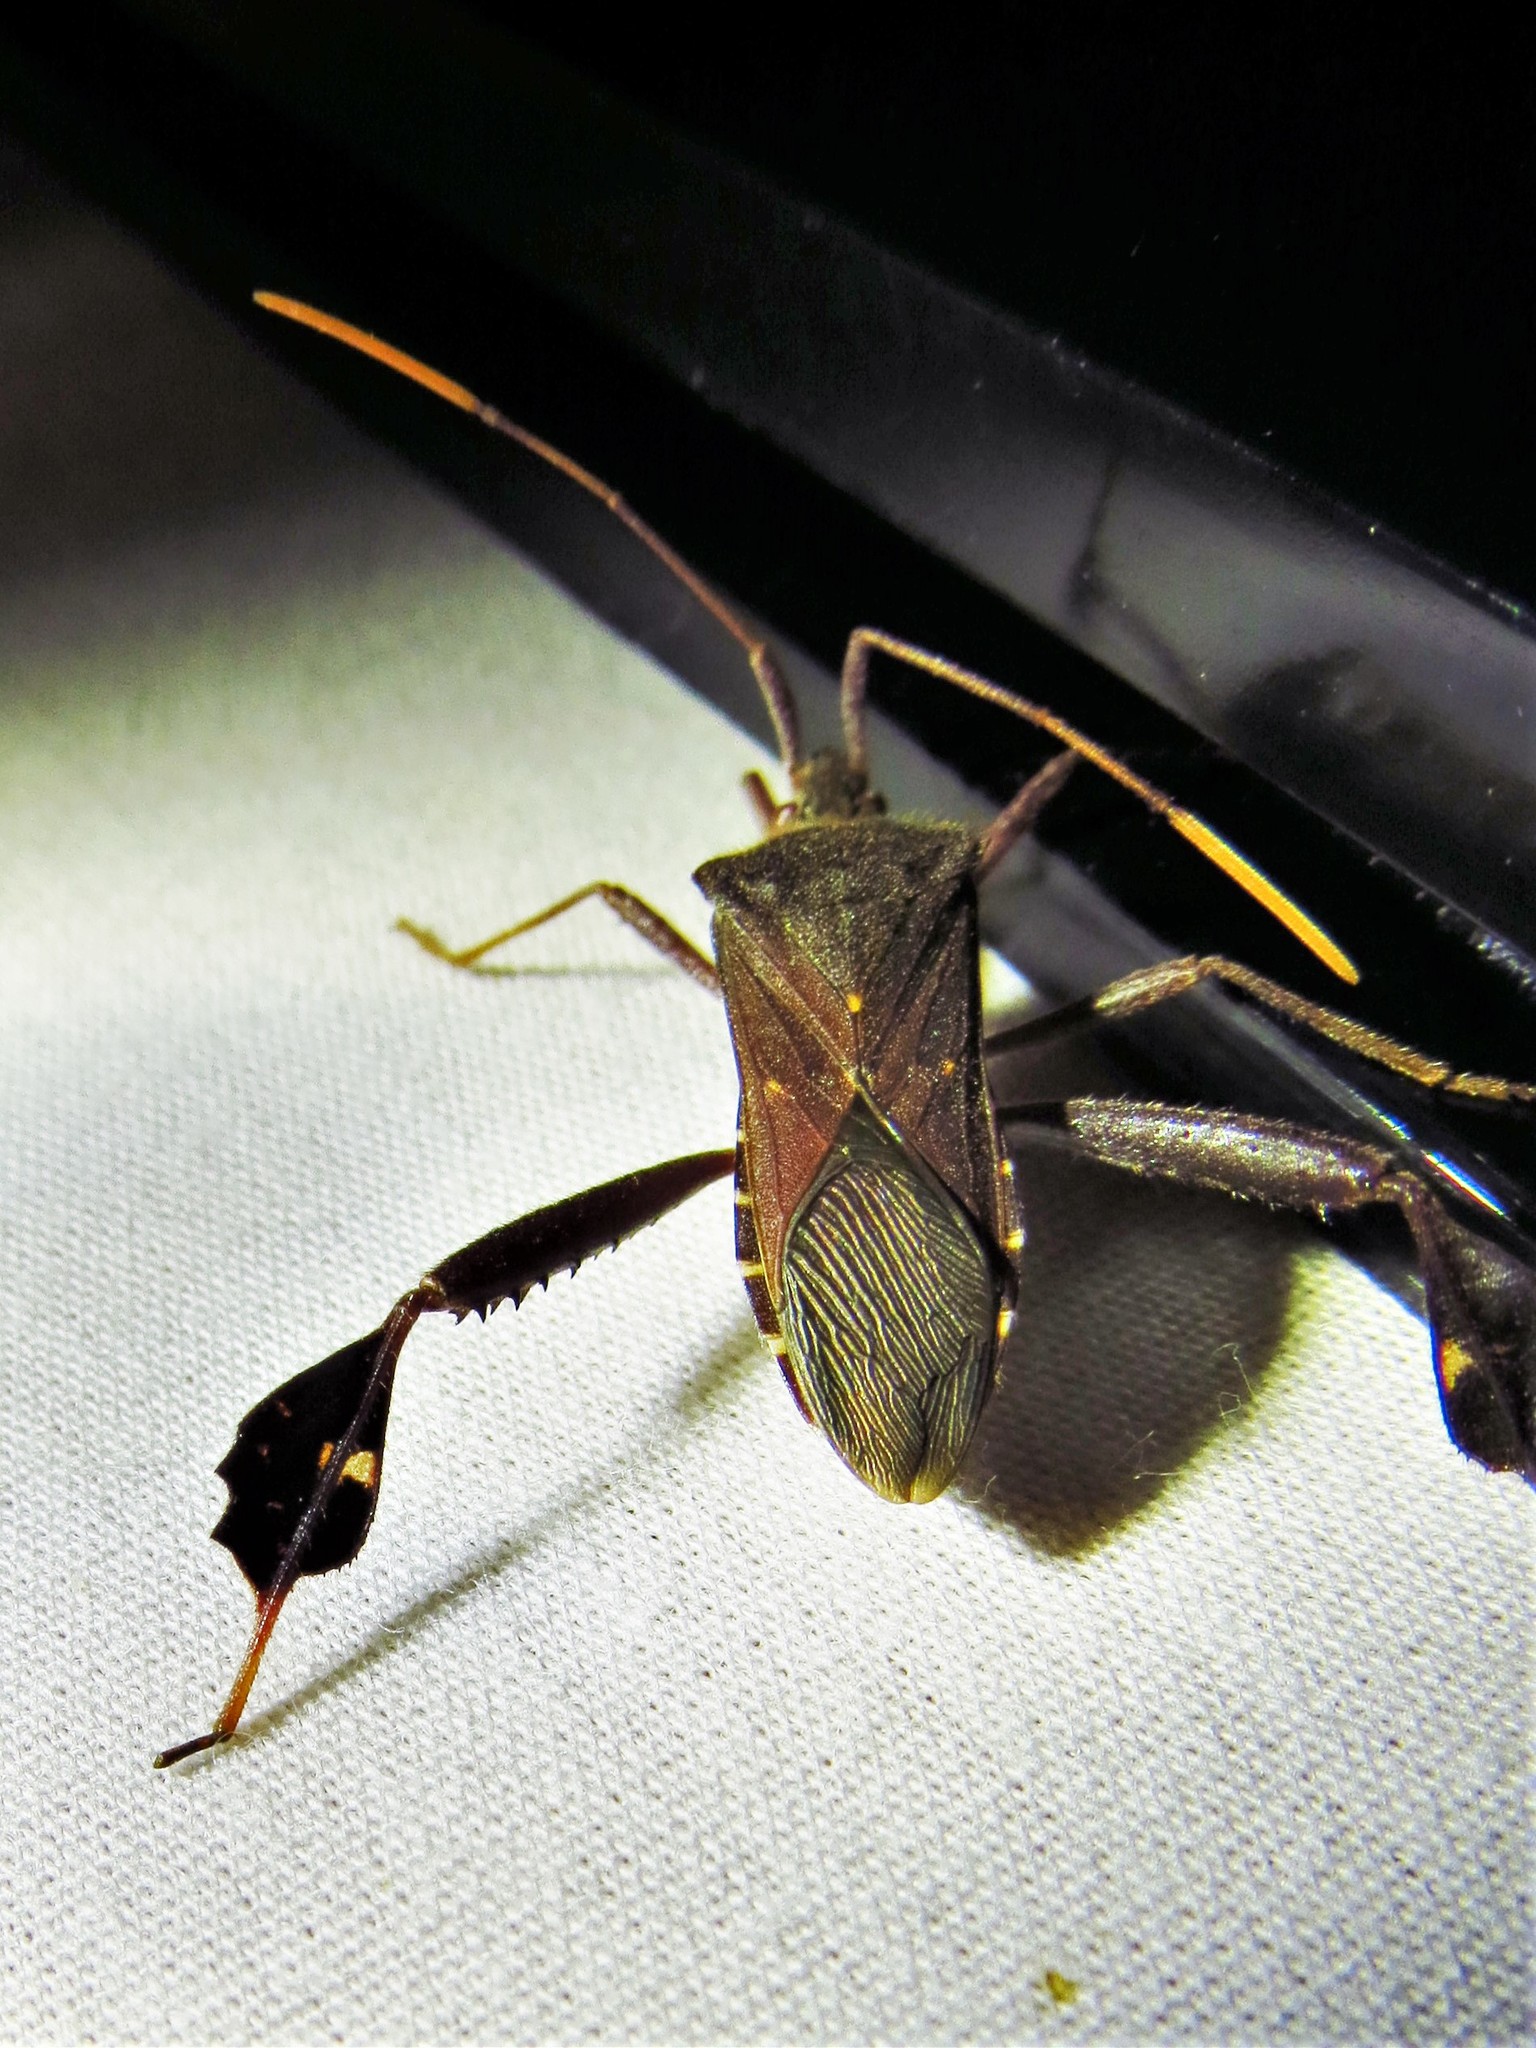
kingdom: Animalia
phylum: Arthropoda
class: Insecta
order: Hemiptera
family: Coreidae
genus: Leptoglossus
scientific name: Leptoglossus oppositus
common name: Northern leaf-footed bug
